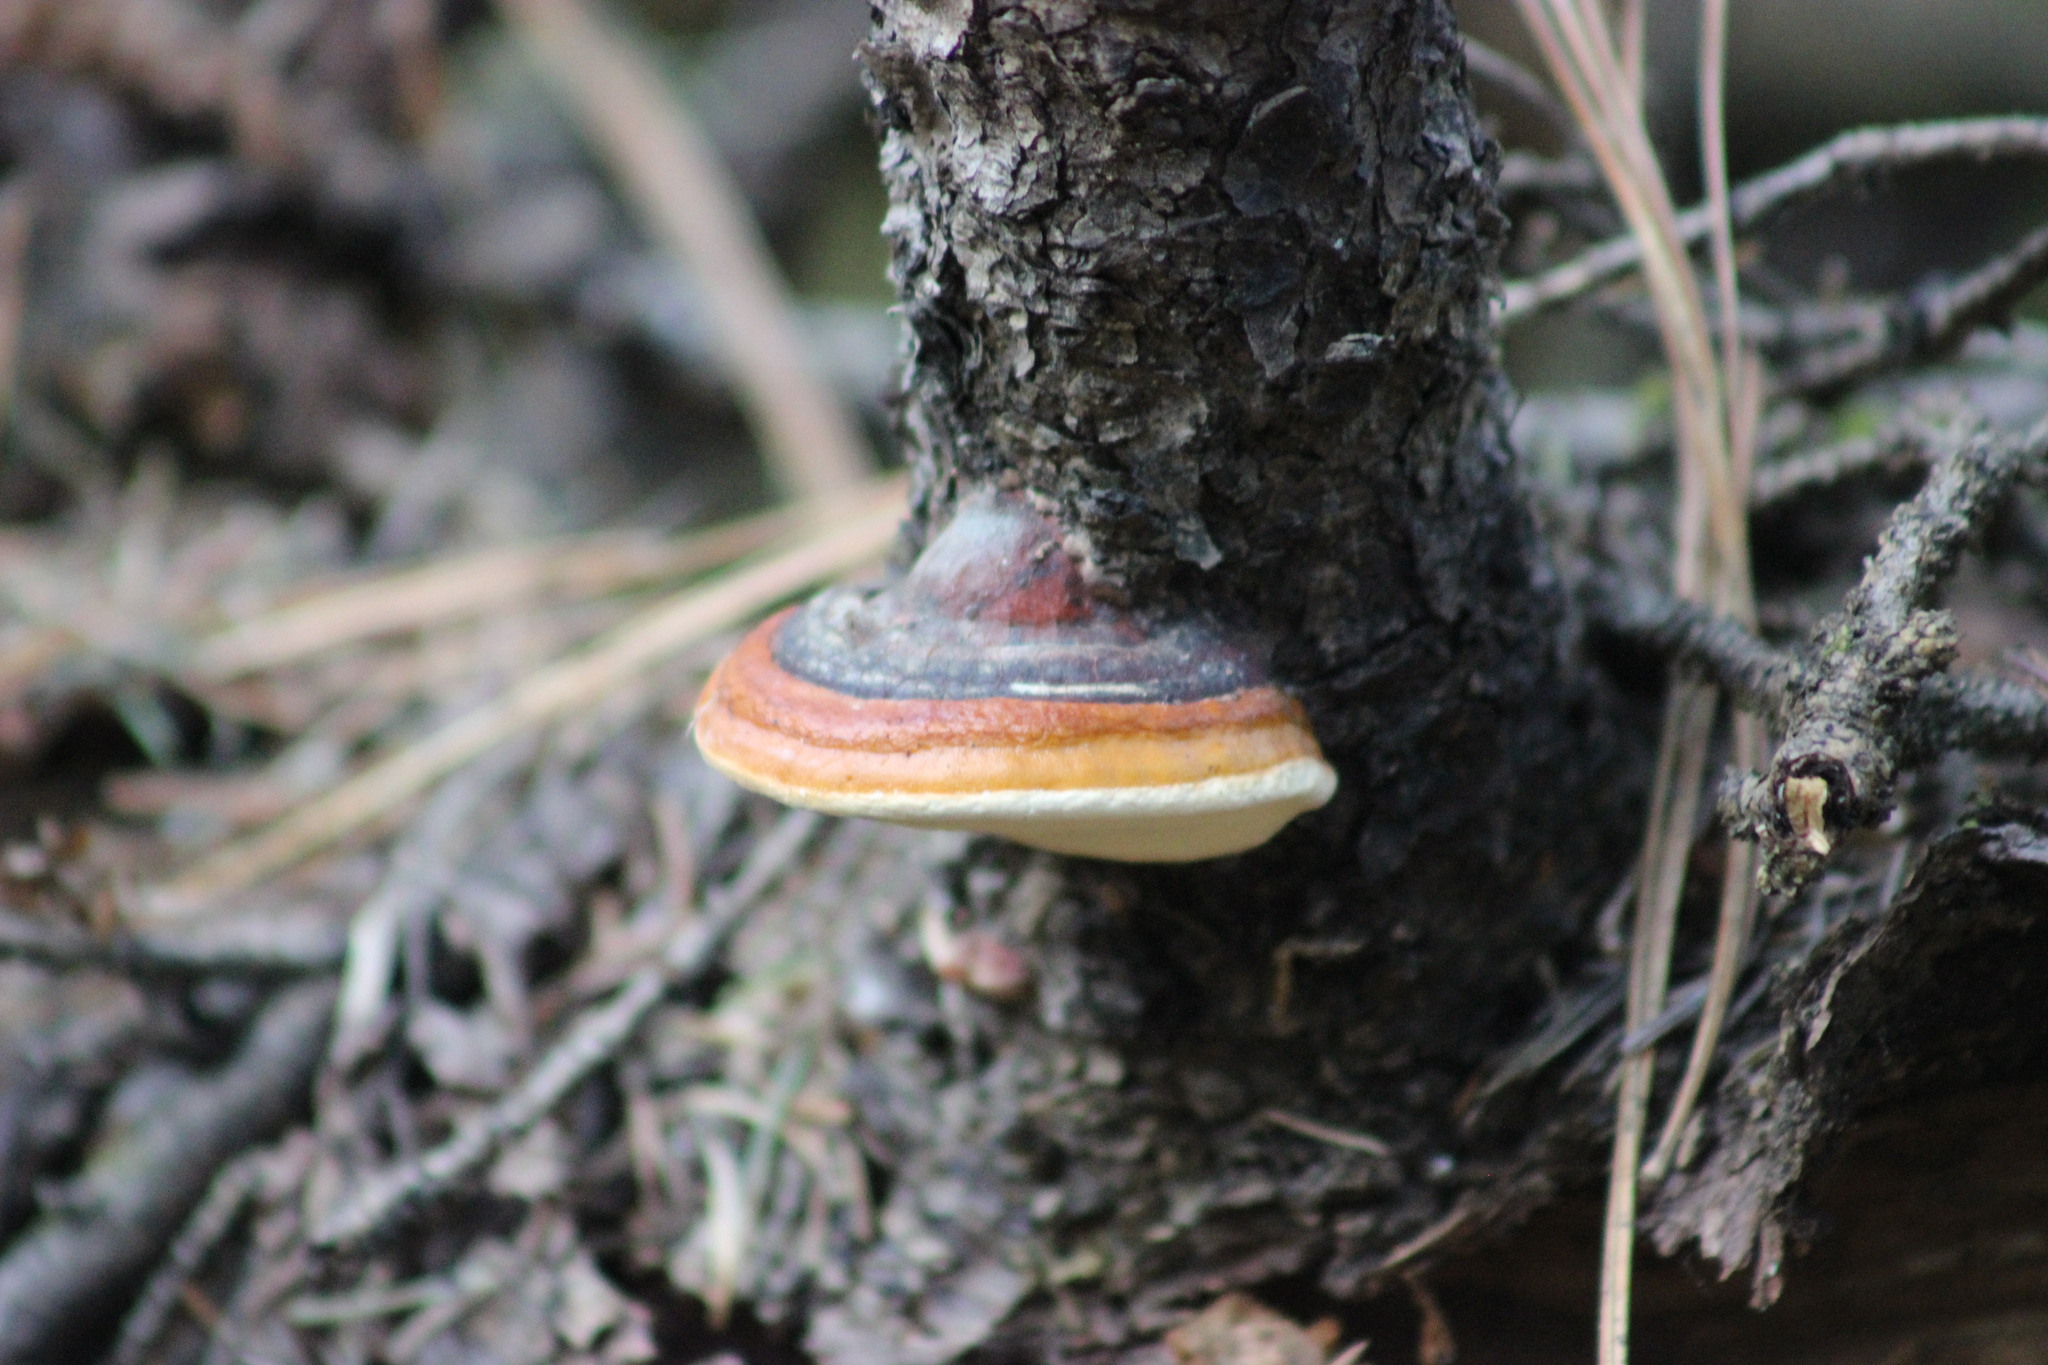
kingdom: Fungi
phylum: Basidiomycota
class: Agaricomycetes
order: Polyporales
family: Fomitopsidaceae
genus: Fomitopsis
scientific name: Fomitopsis pinicola
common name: Red-belted bracket
